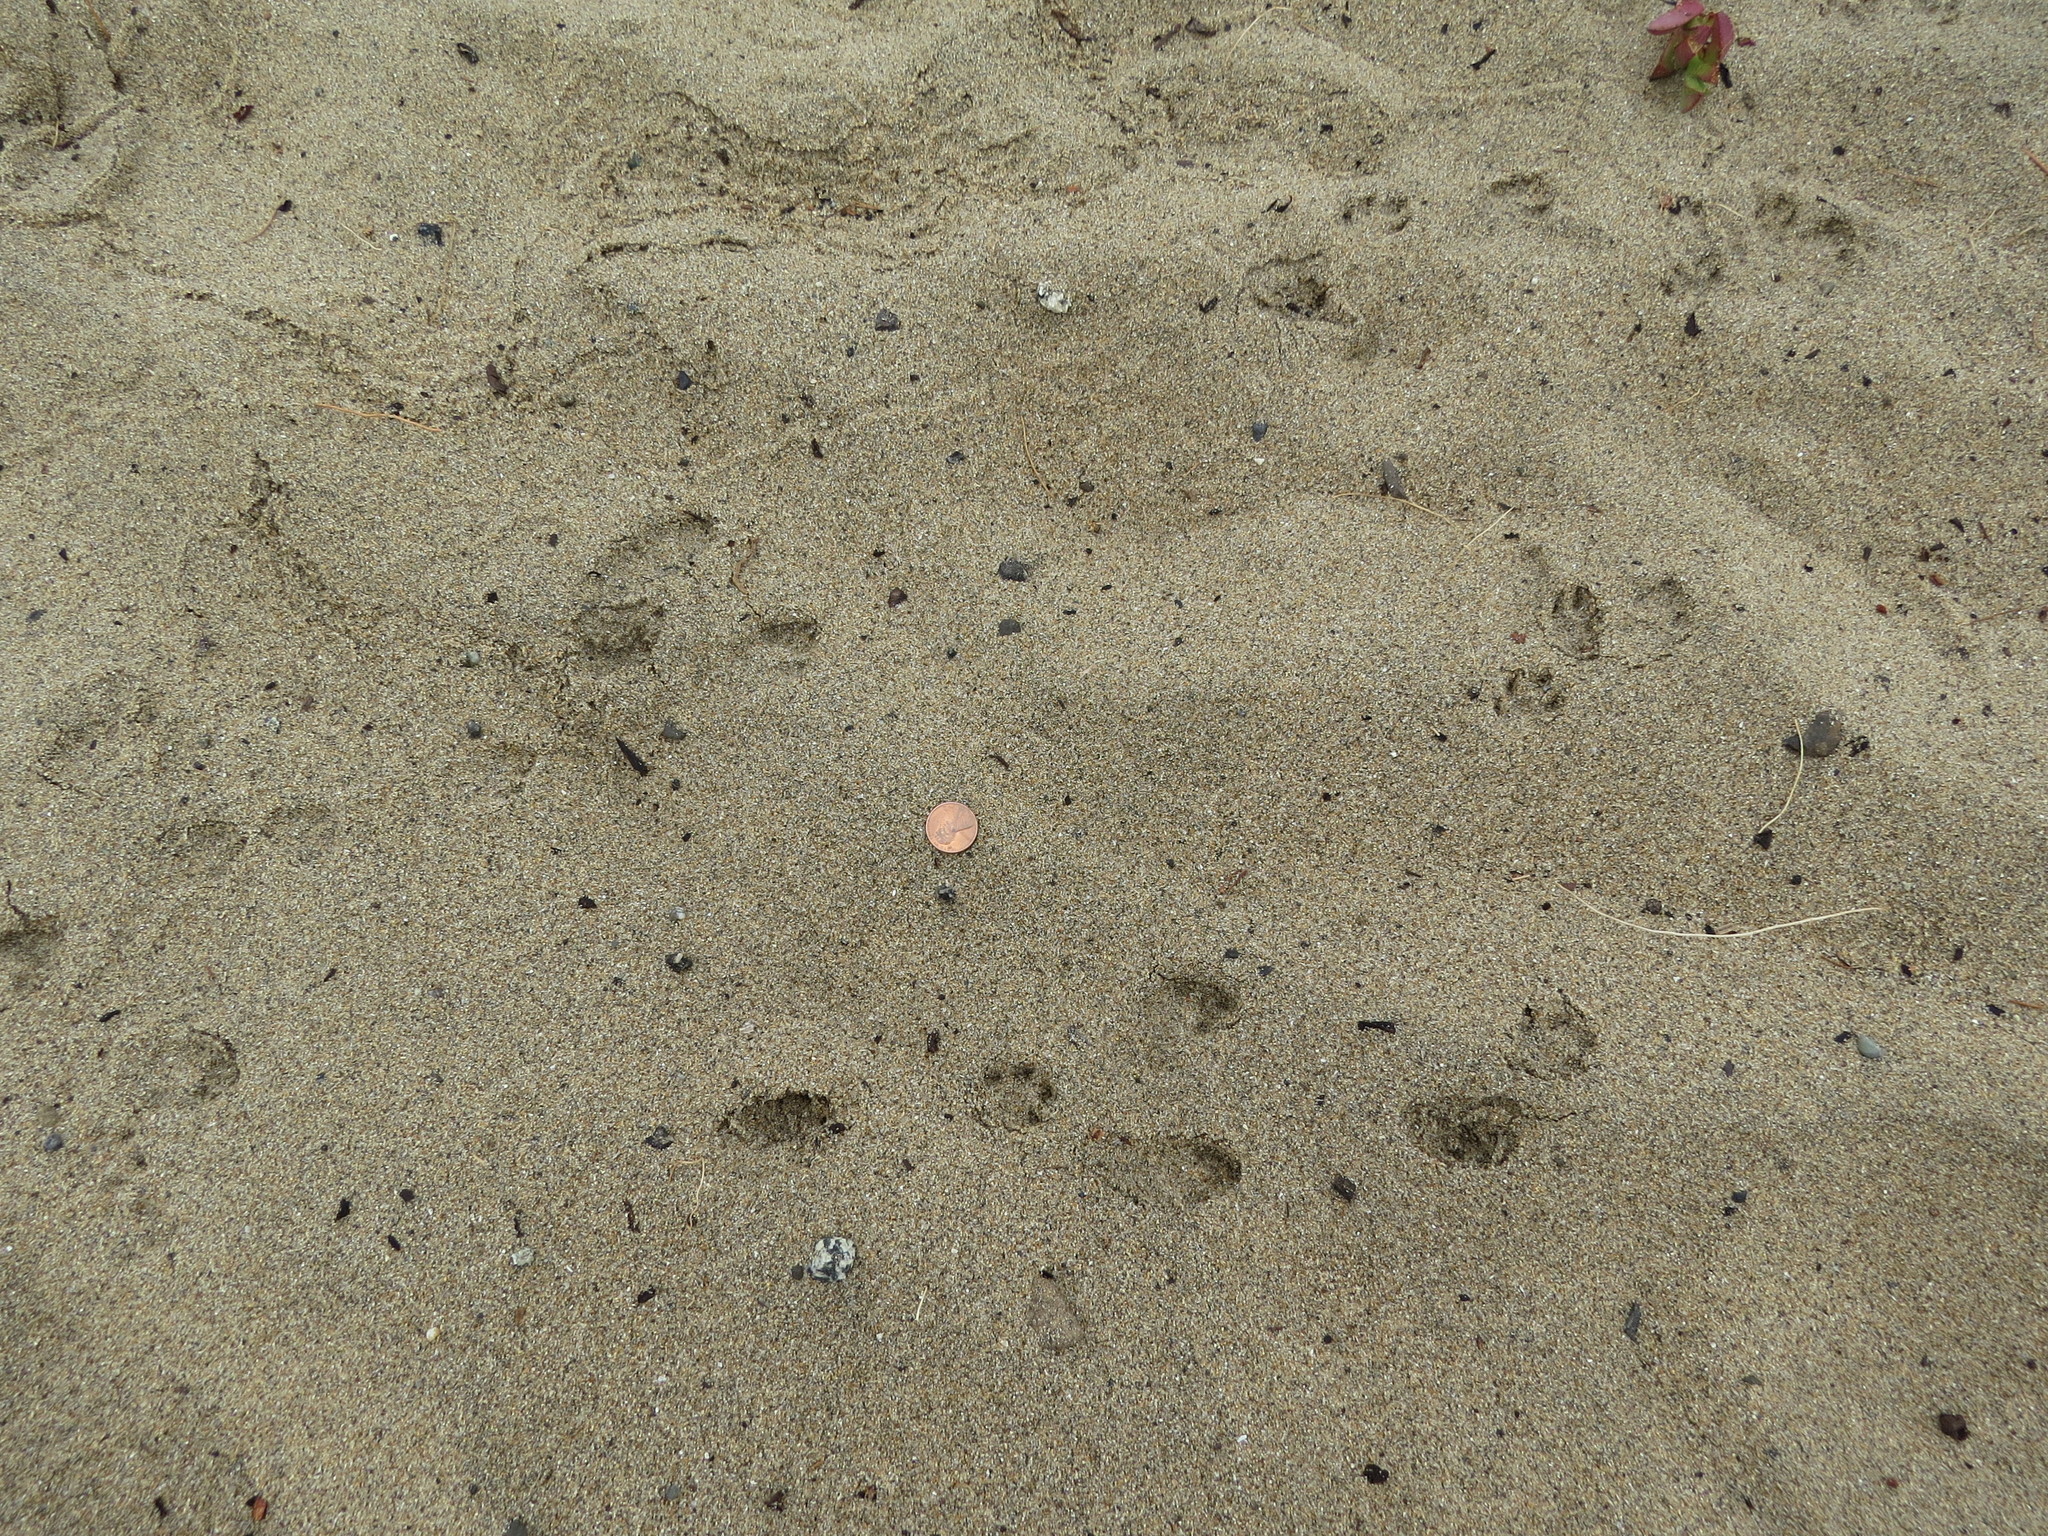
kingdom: Animalia
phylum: Chordata
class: Mammalia
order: Lagomorpha
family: Leporidae
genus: Sylvilagus
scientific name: Sylvilagus bachmani
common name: Brush rabbit
